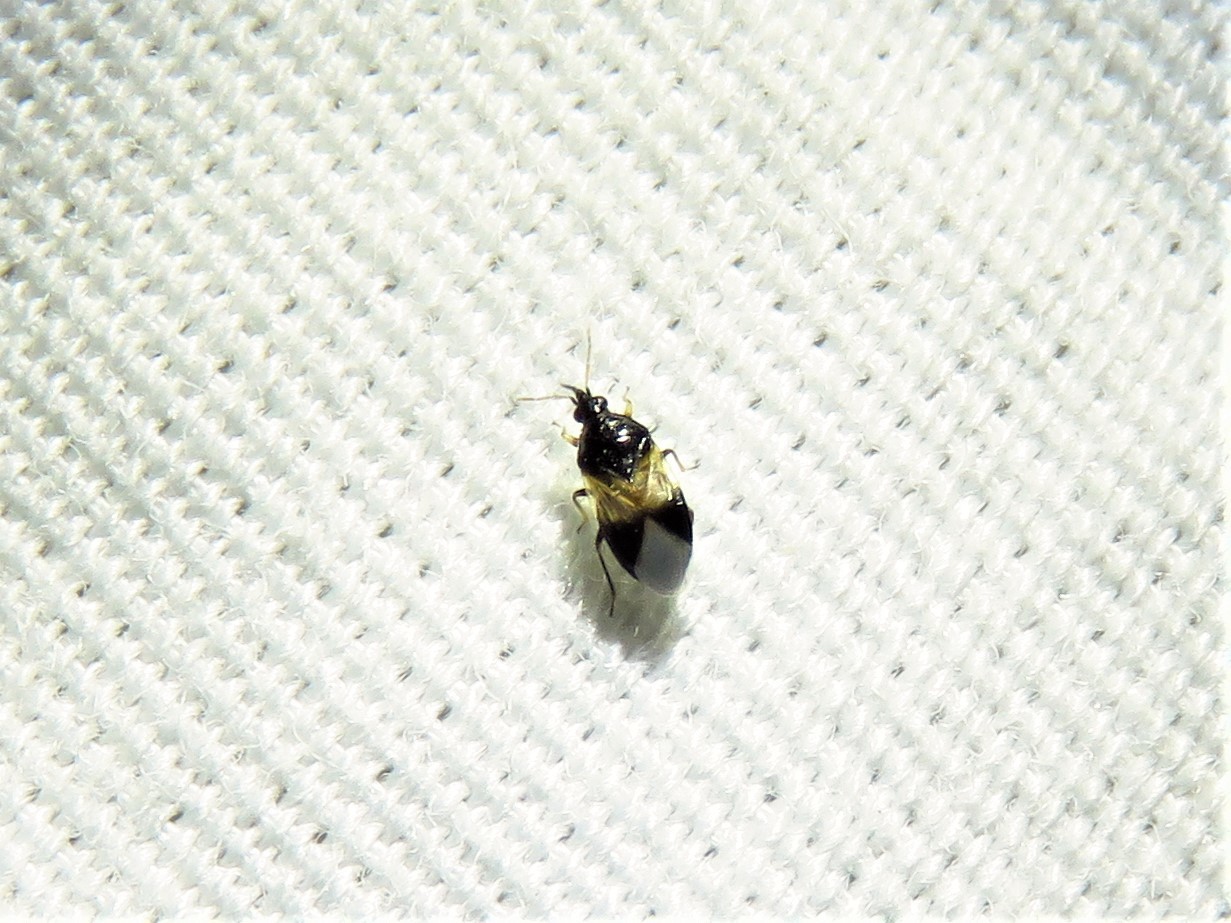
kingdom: Animalia
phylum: Arthropoda
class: Insecta
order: Hemiptera
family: Anthocoridae
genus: Orius
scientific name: Orius insidiosus
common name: Insidious flower bug
